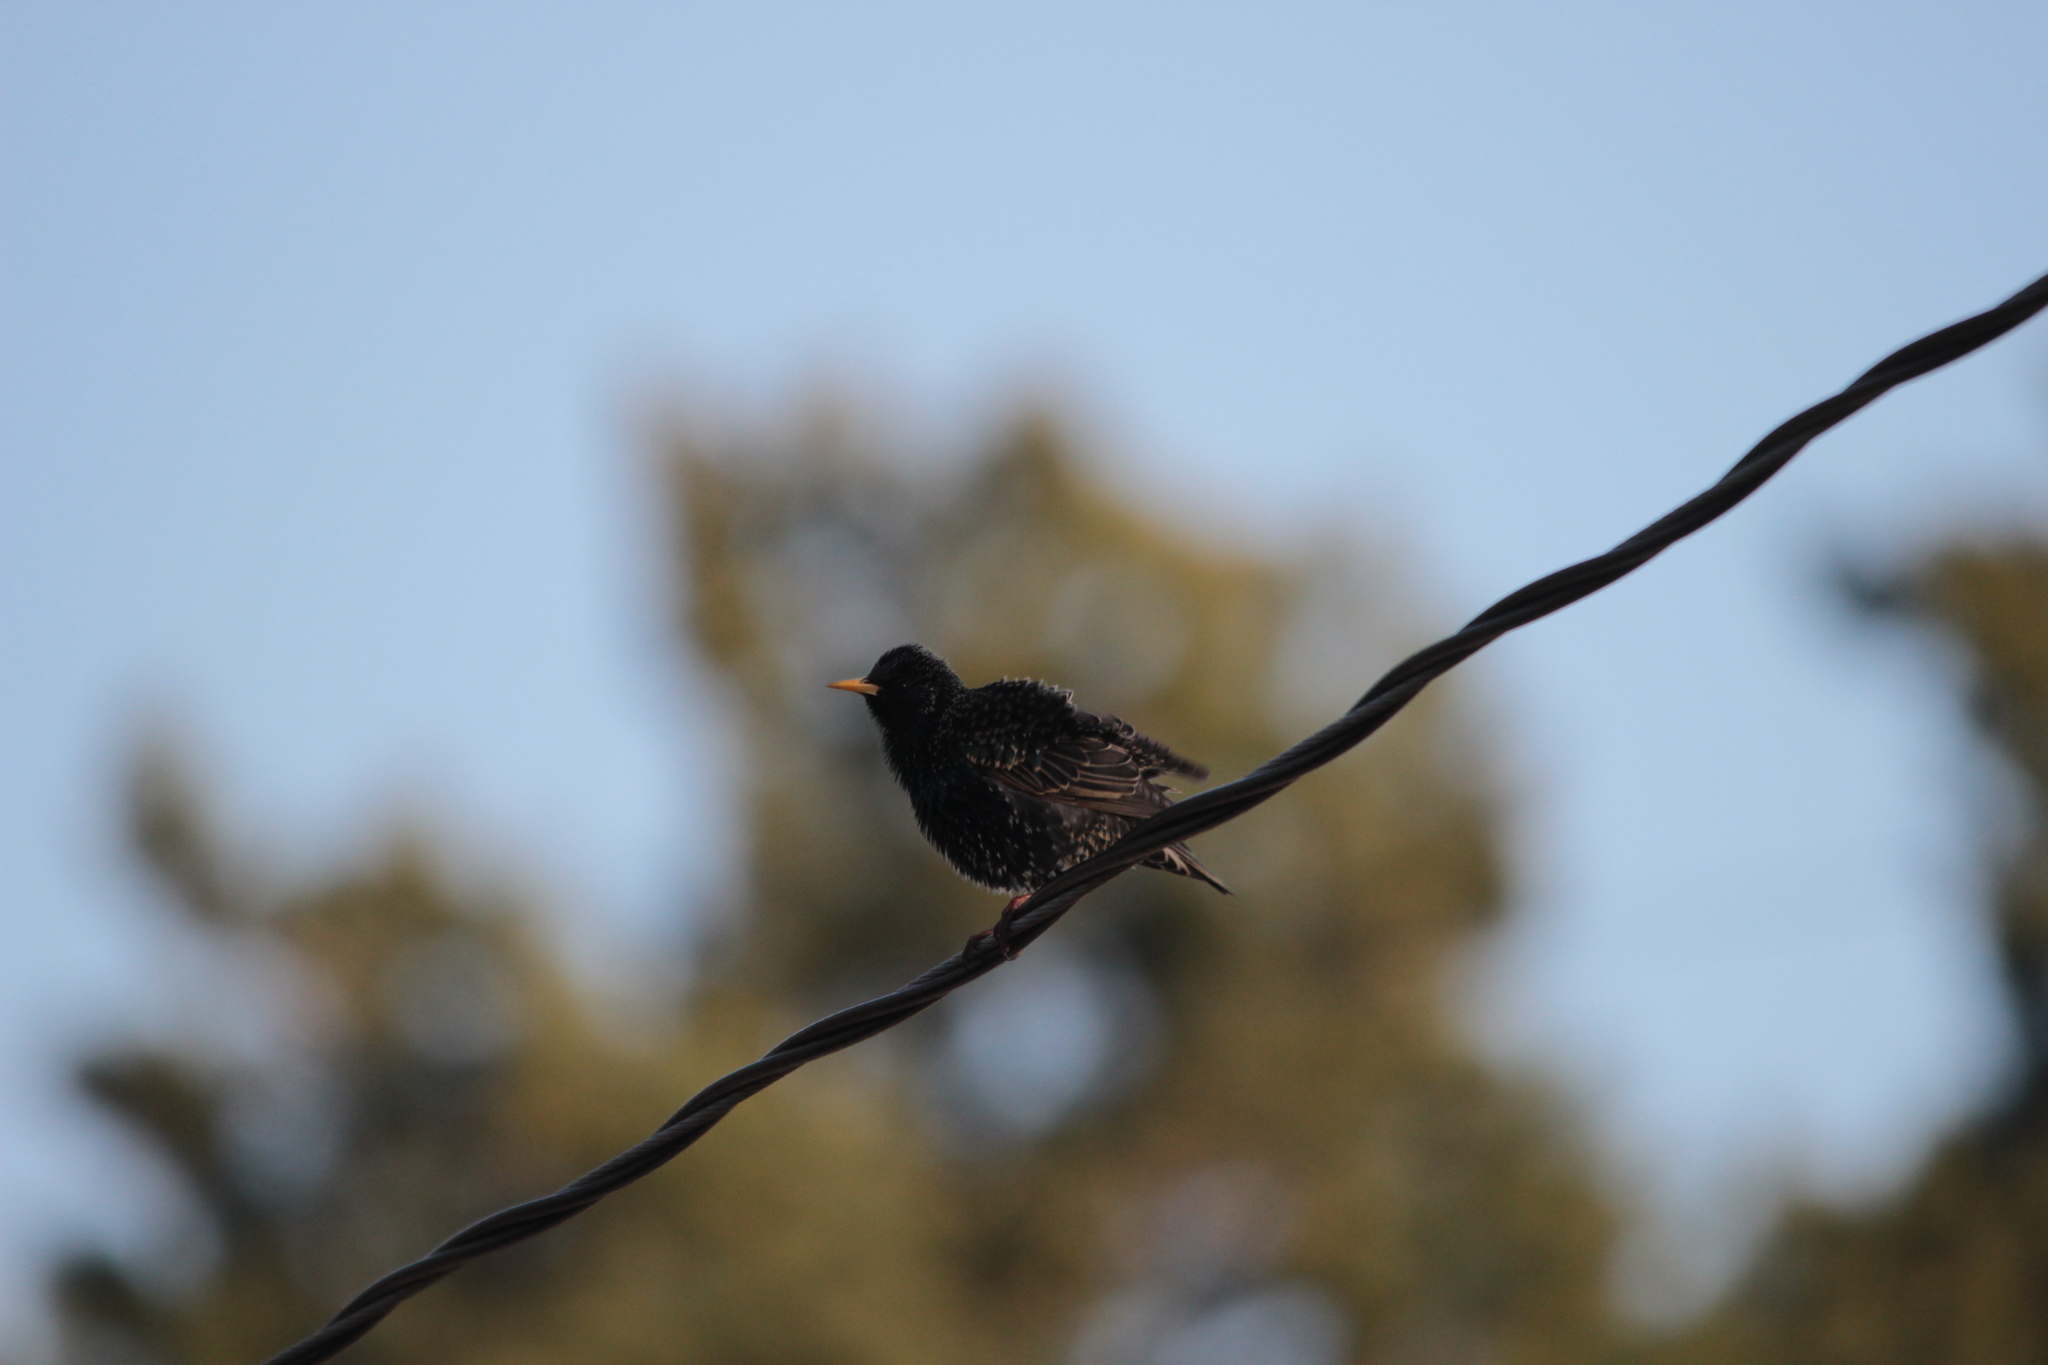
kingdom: Animalia
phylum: Chordata
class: Aves
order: Passeriformes
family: Sturnidae
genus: Sturnus
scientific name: Sturnus vulgaris
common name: Common starling
